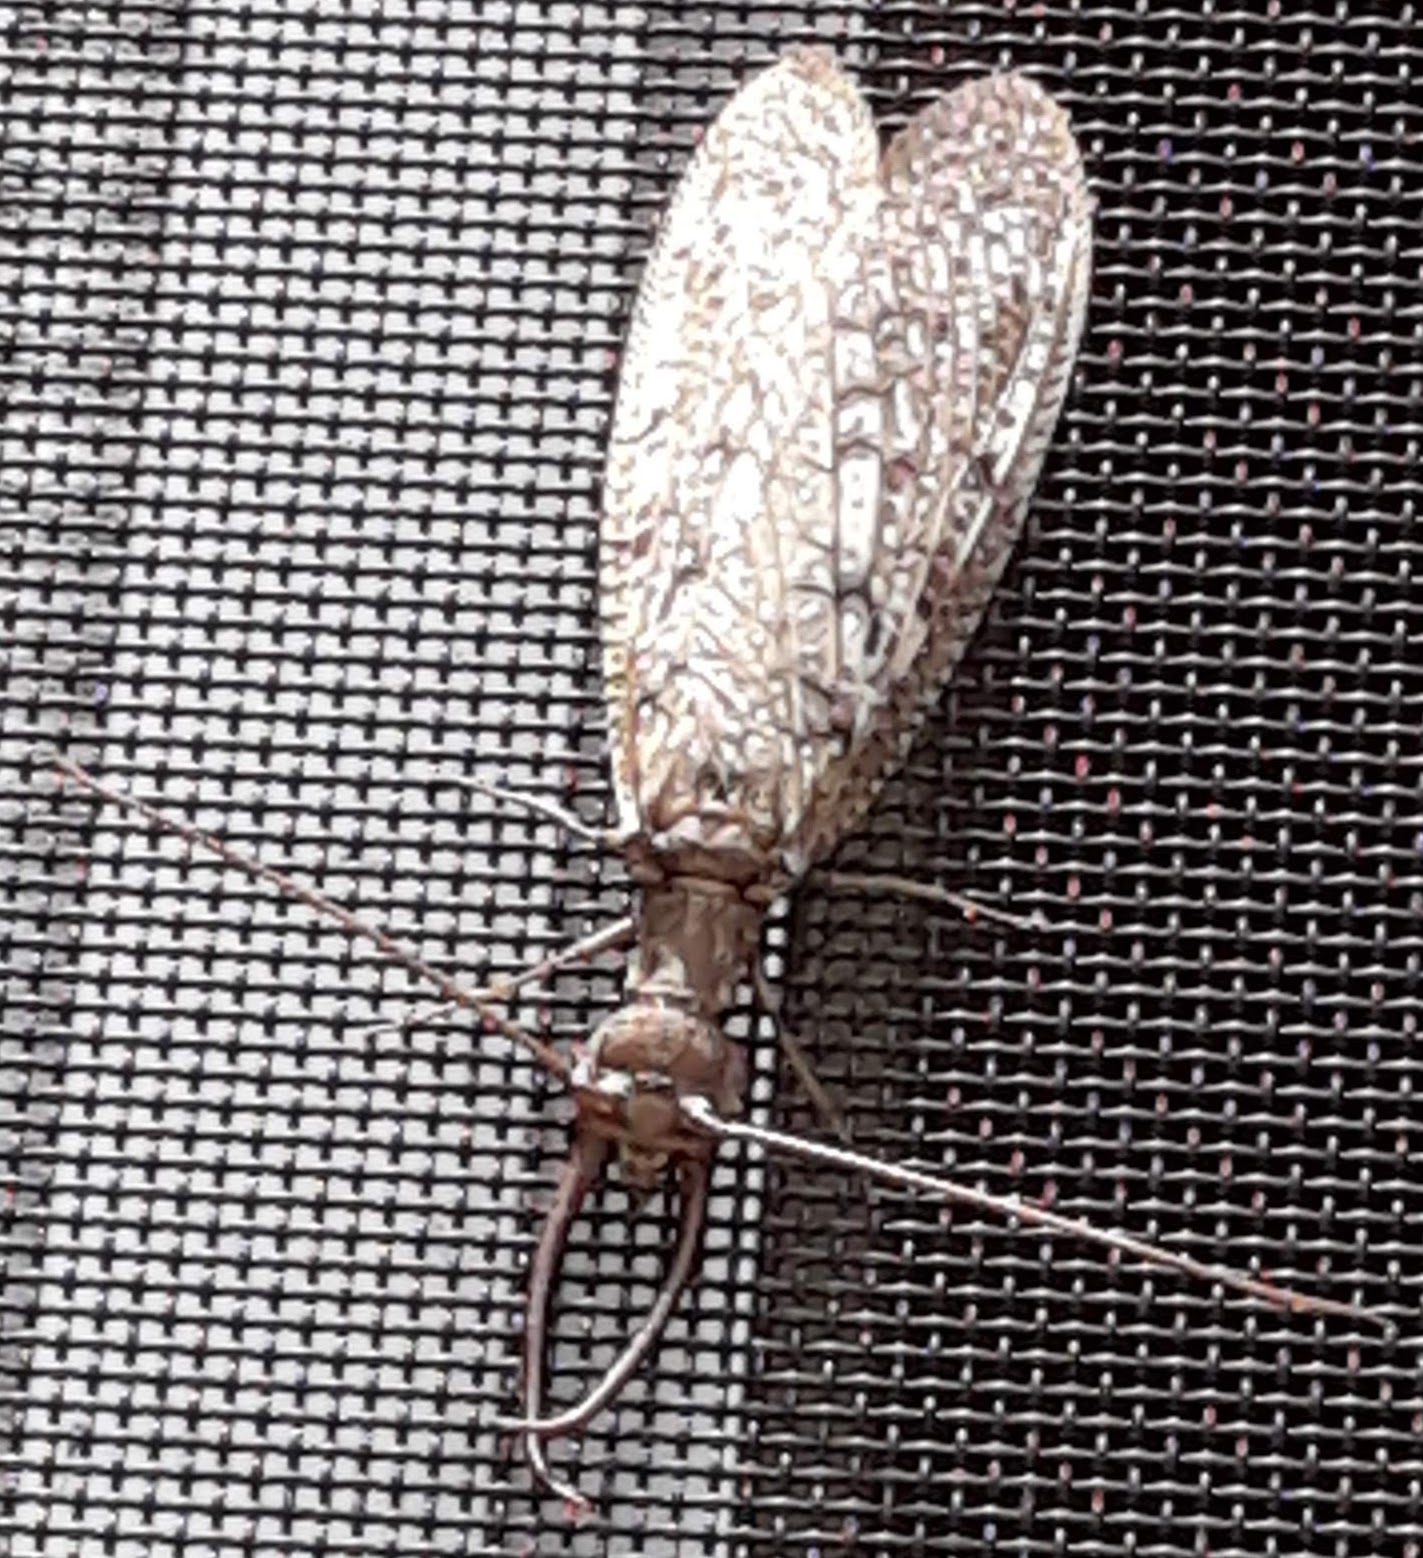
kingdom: Animalia
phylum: Arthropoda
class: Insecta
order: Megaloptera
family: Corydalidae
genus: Corydalus
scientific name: Corydalus cornutus
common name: Dobsonfly
